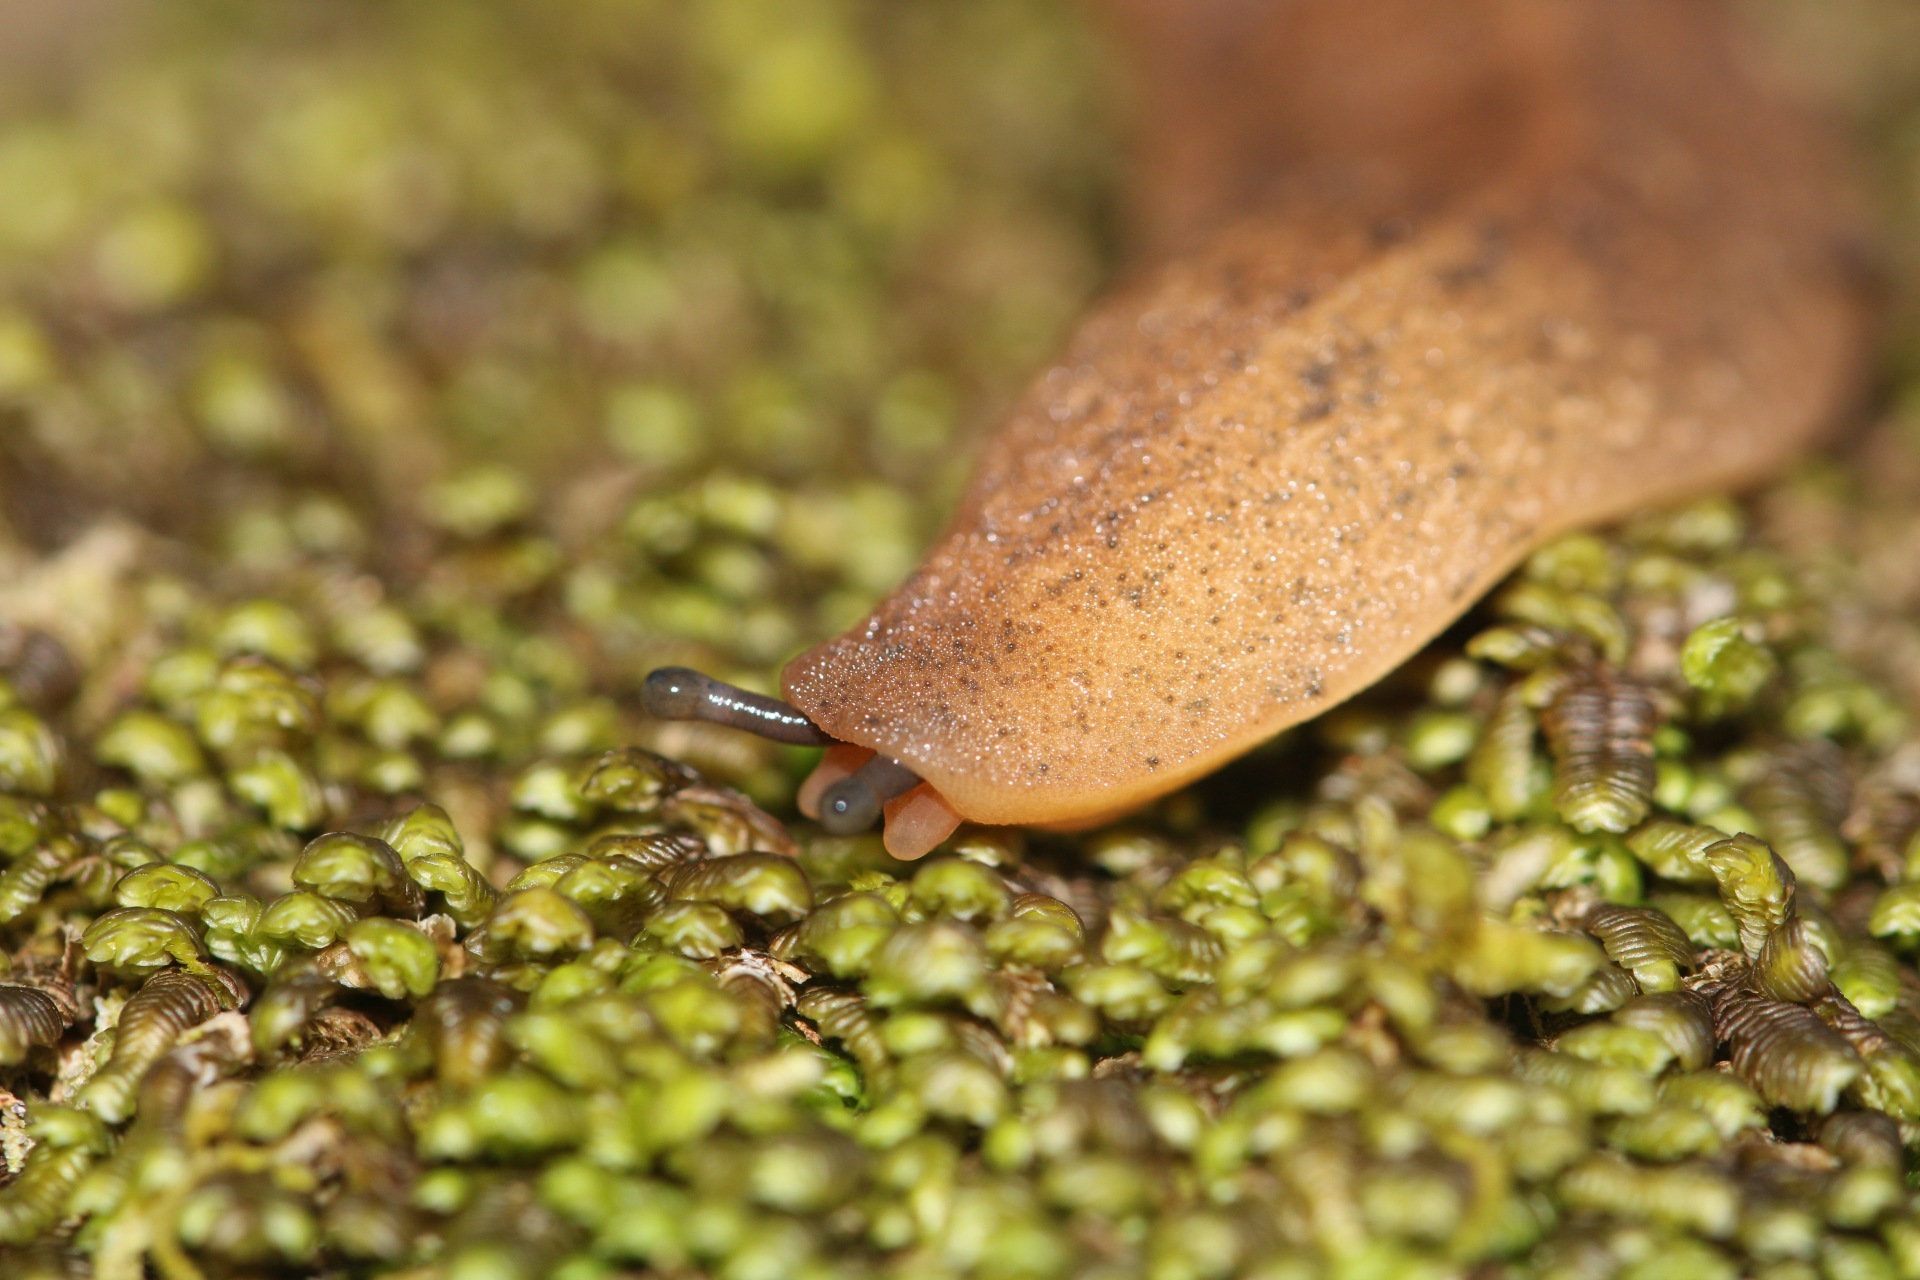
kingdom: Animalia
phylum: Mollusca
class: Gastropoda
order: Systellommatophora
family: Veronicellidae
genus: Sarasinula
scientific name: Sarasinula plebeia
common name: Caribbean leatherleaf
